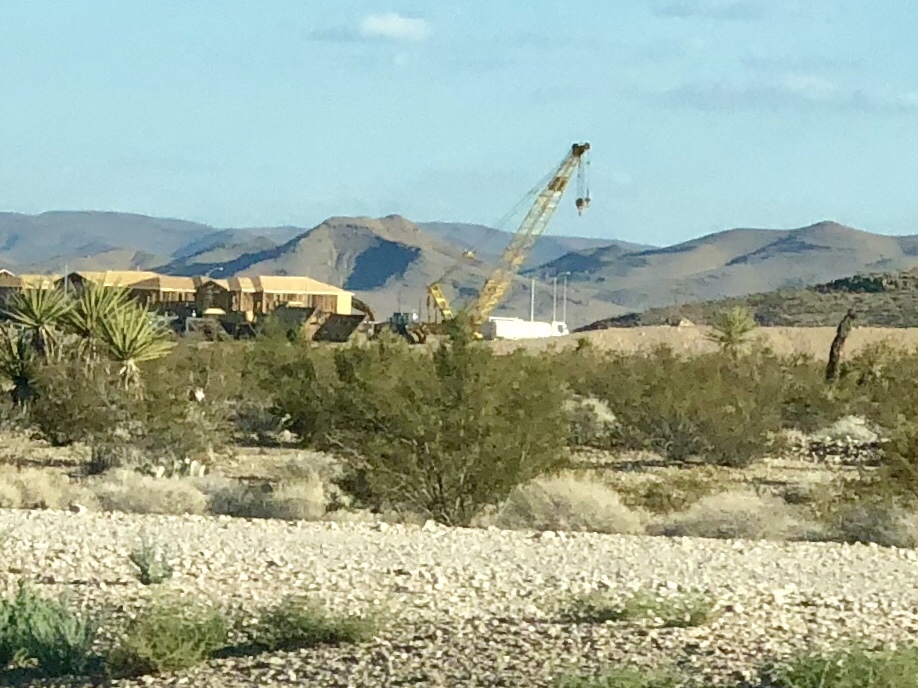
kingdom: Plantae
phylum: Tracheophyta
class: Magnoliopsida
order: Zygophyllales
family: Zygophyllaceae
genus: Larrea
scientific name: Larrea tridentata
